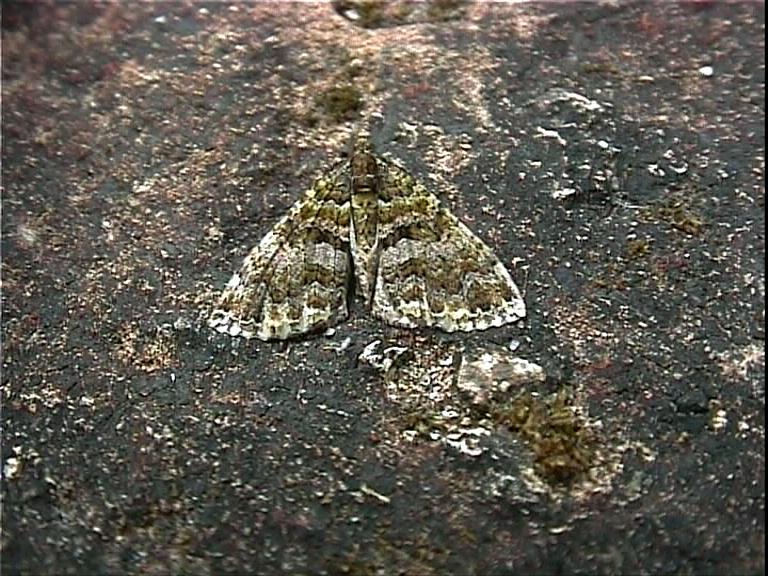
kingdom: Animalia
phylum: Arthropoda
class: Insecta
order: Lepidoptera
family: Geometridae
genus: Austrocidaria
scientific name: Austrocidaria similata
